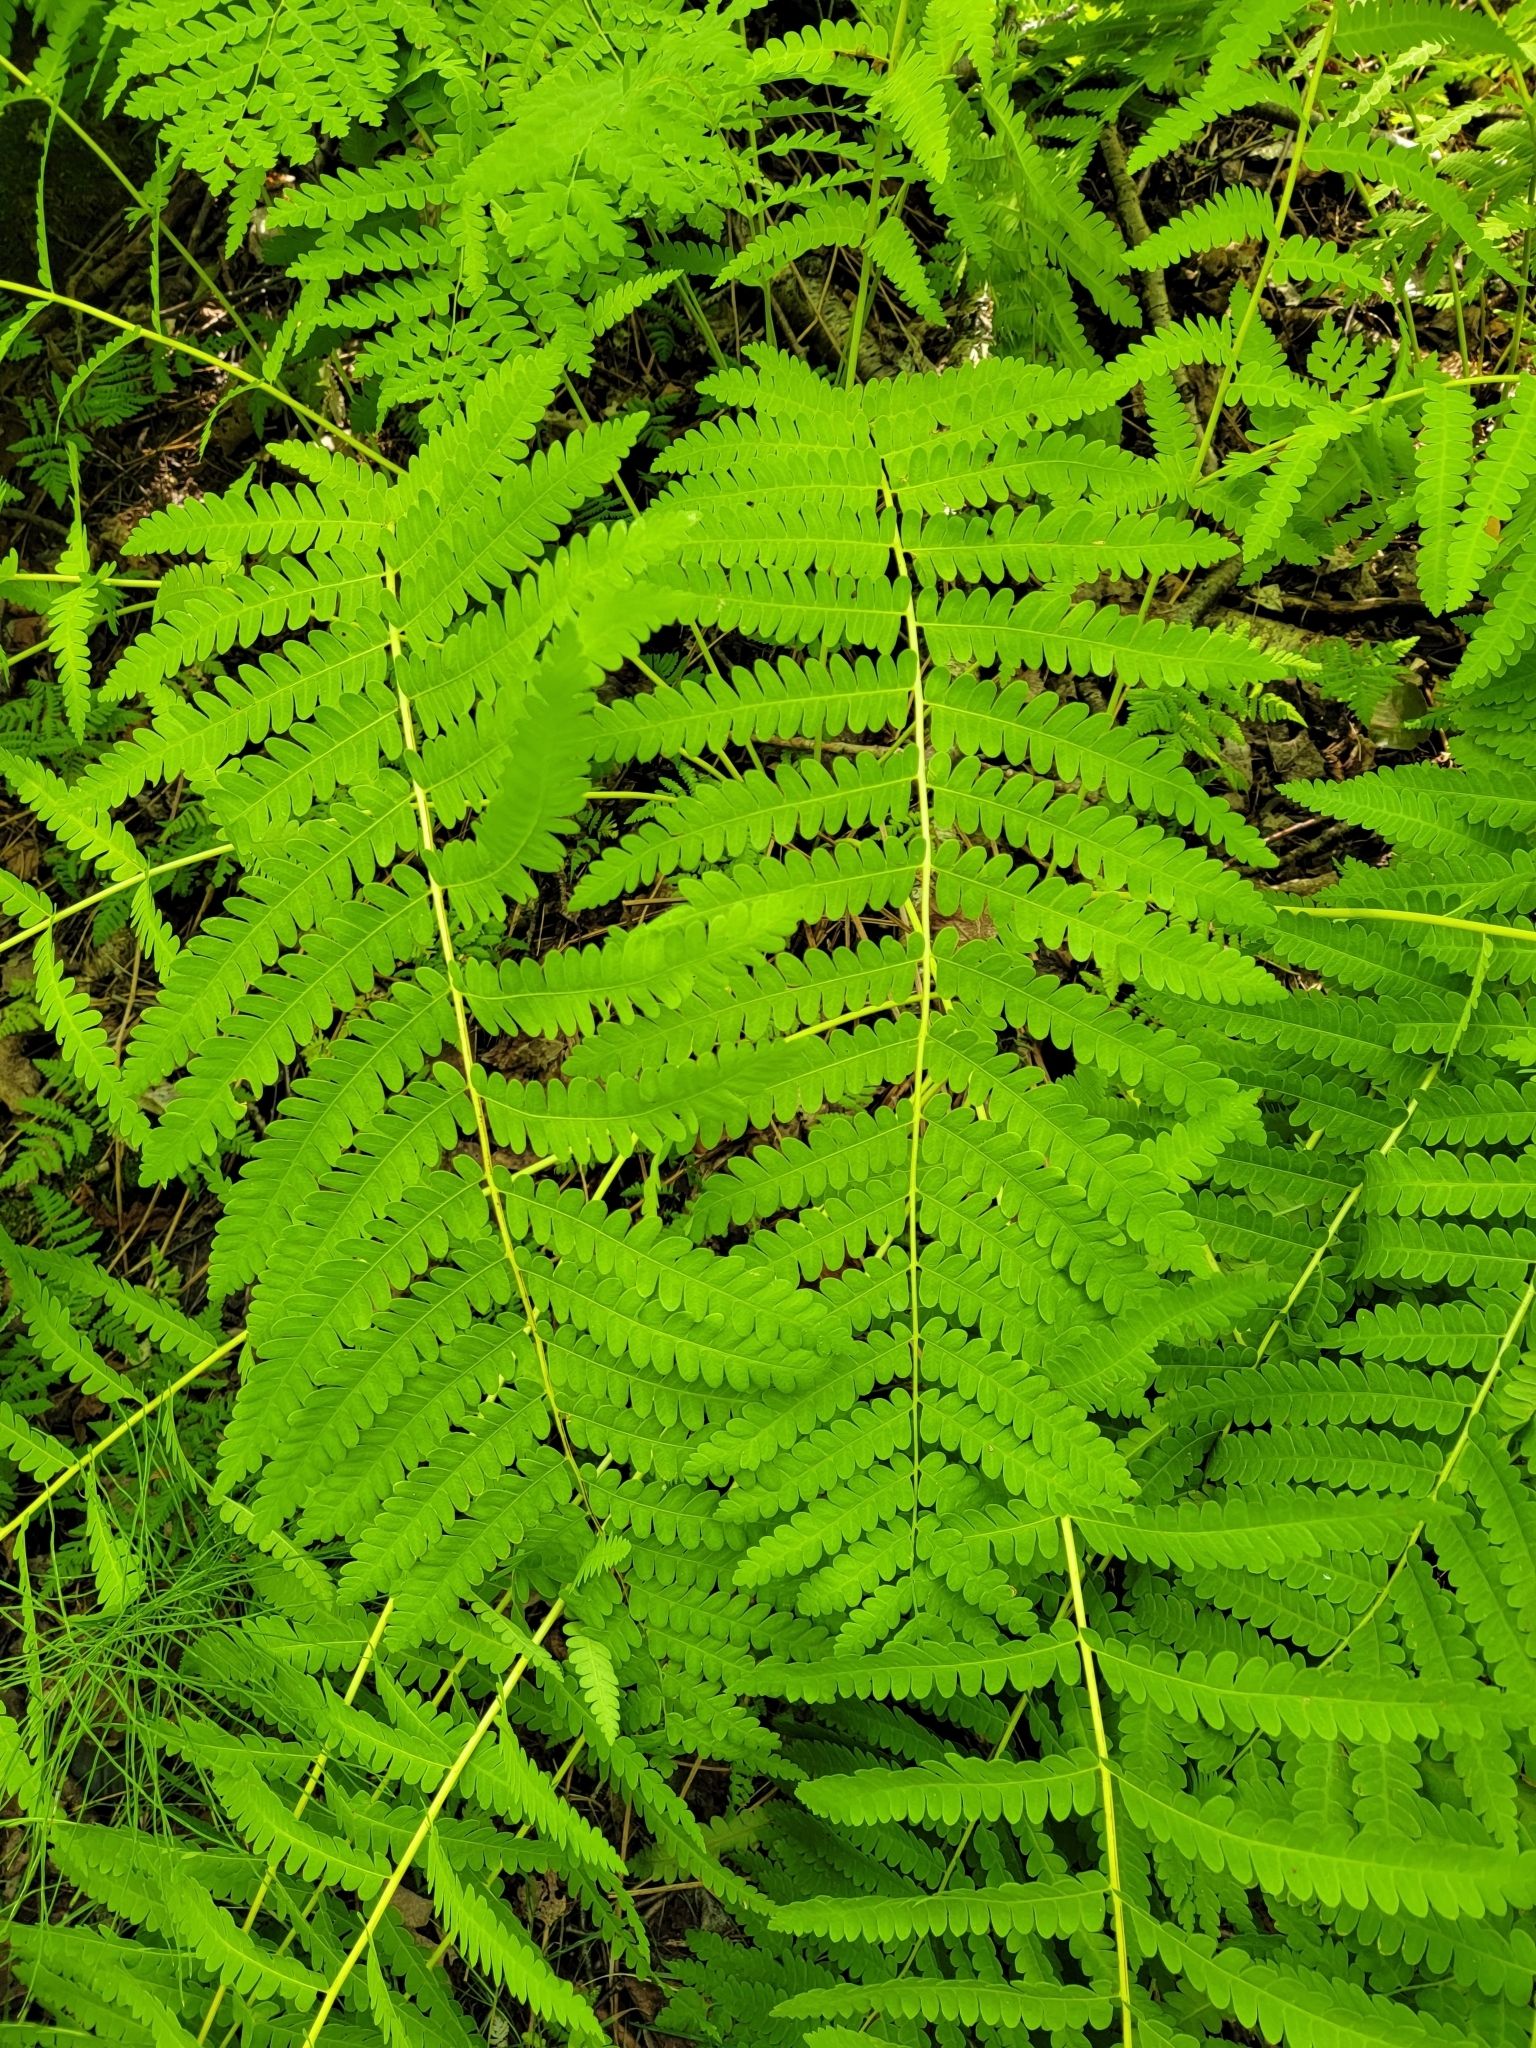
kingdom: Plantae
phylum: Tracheophyta
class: Polypodiopsida
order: Osmundales
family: Osmundaceae
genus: Claytosmunda
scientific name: Claytosmunda claytoniana
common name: Clayton's fern
